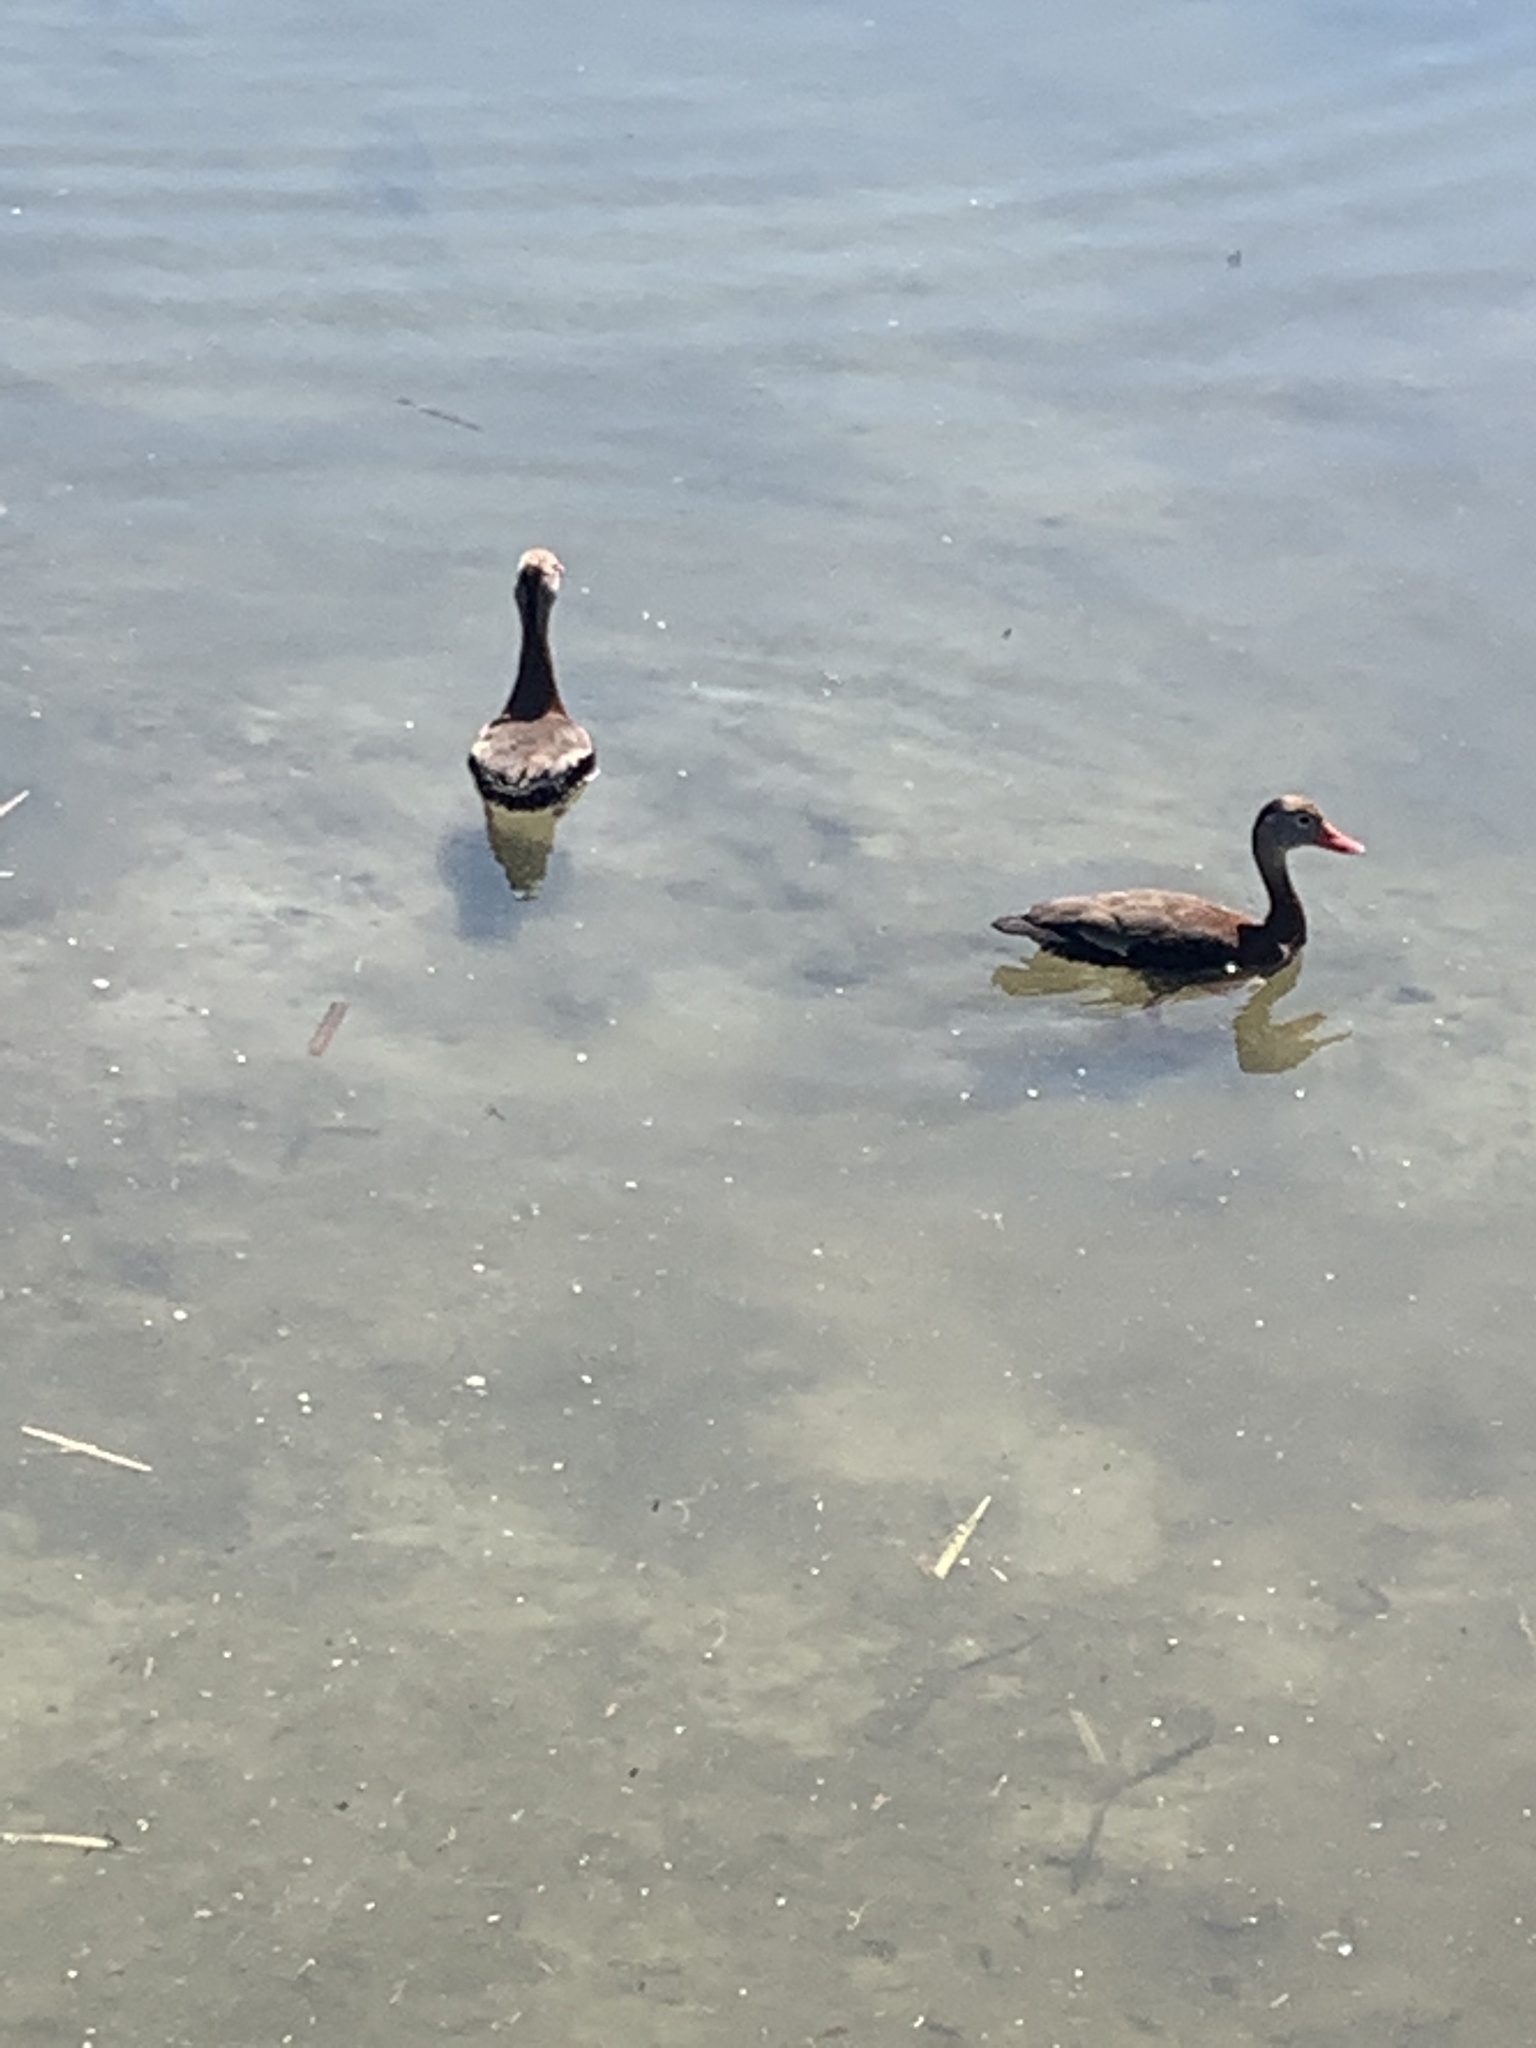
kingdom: Animalia
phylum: Chordata
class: Aves
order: Anseriformes
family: Anatidae
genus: Dendrocygna
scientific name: Dendrocygna autumnalis
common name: Black-bellied whistling duck
